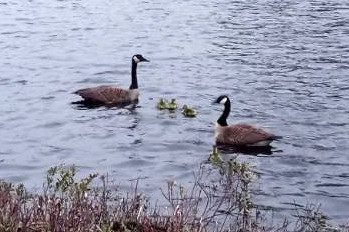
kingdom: Animalia
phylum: Chordata
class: Aves
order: Anseriformes
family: Anatidae
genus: Branta
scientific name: Branta canadensis
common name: Canada goose
